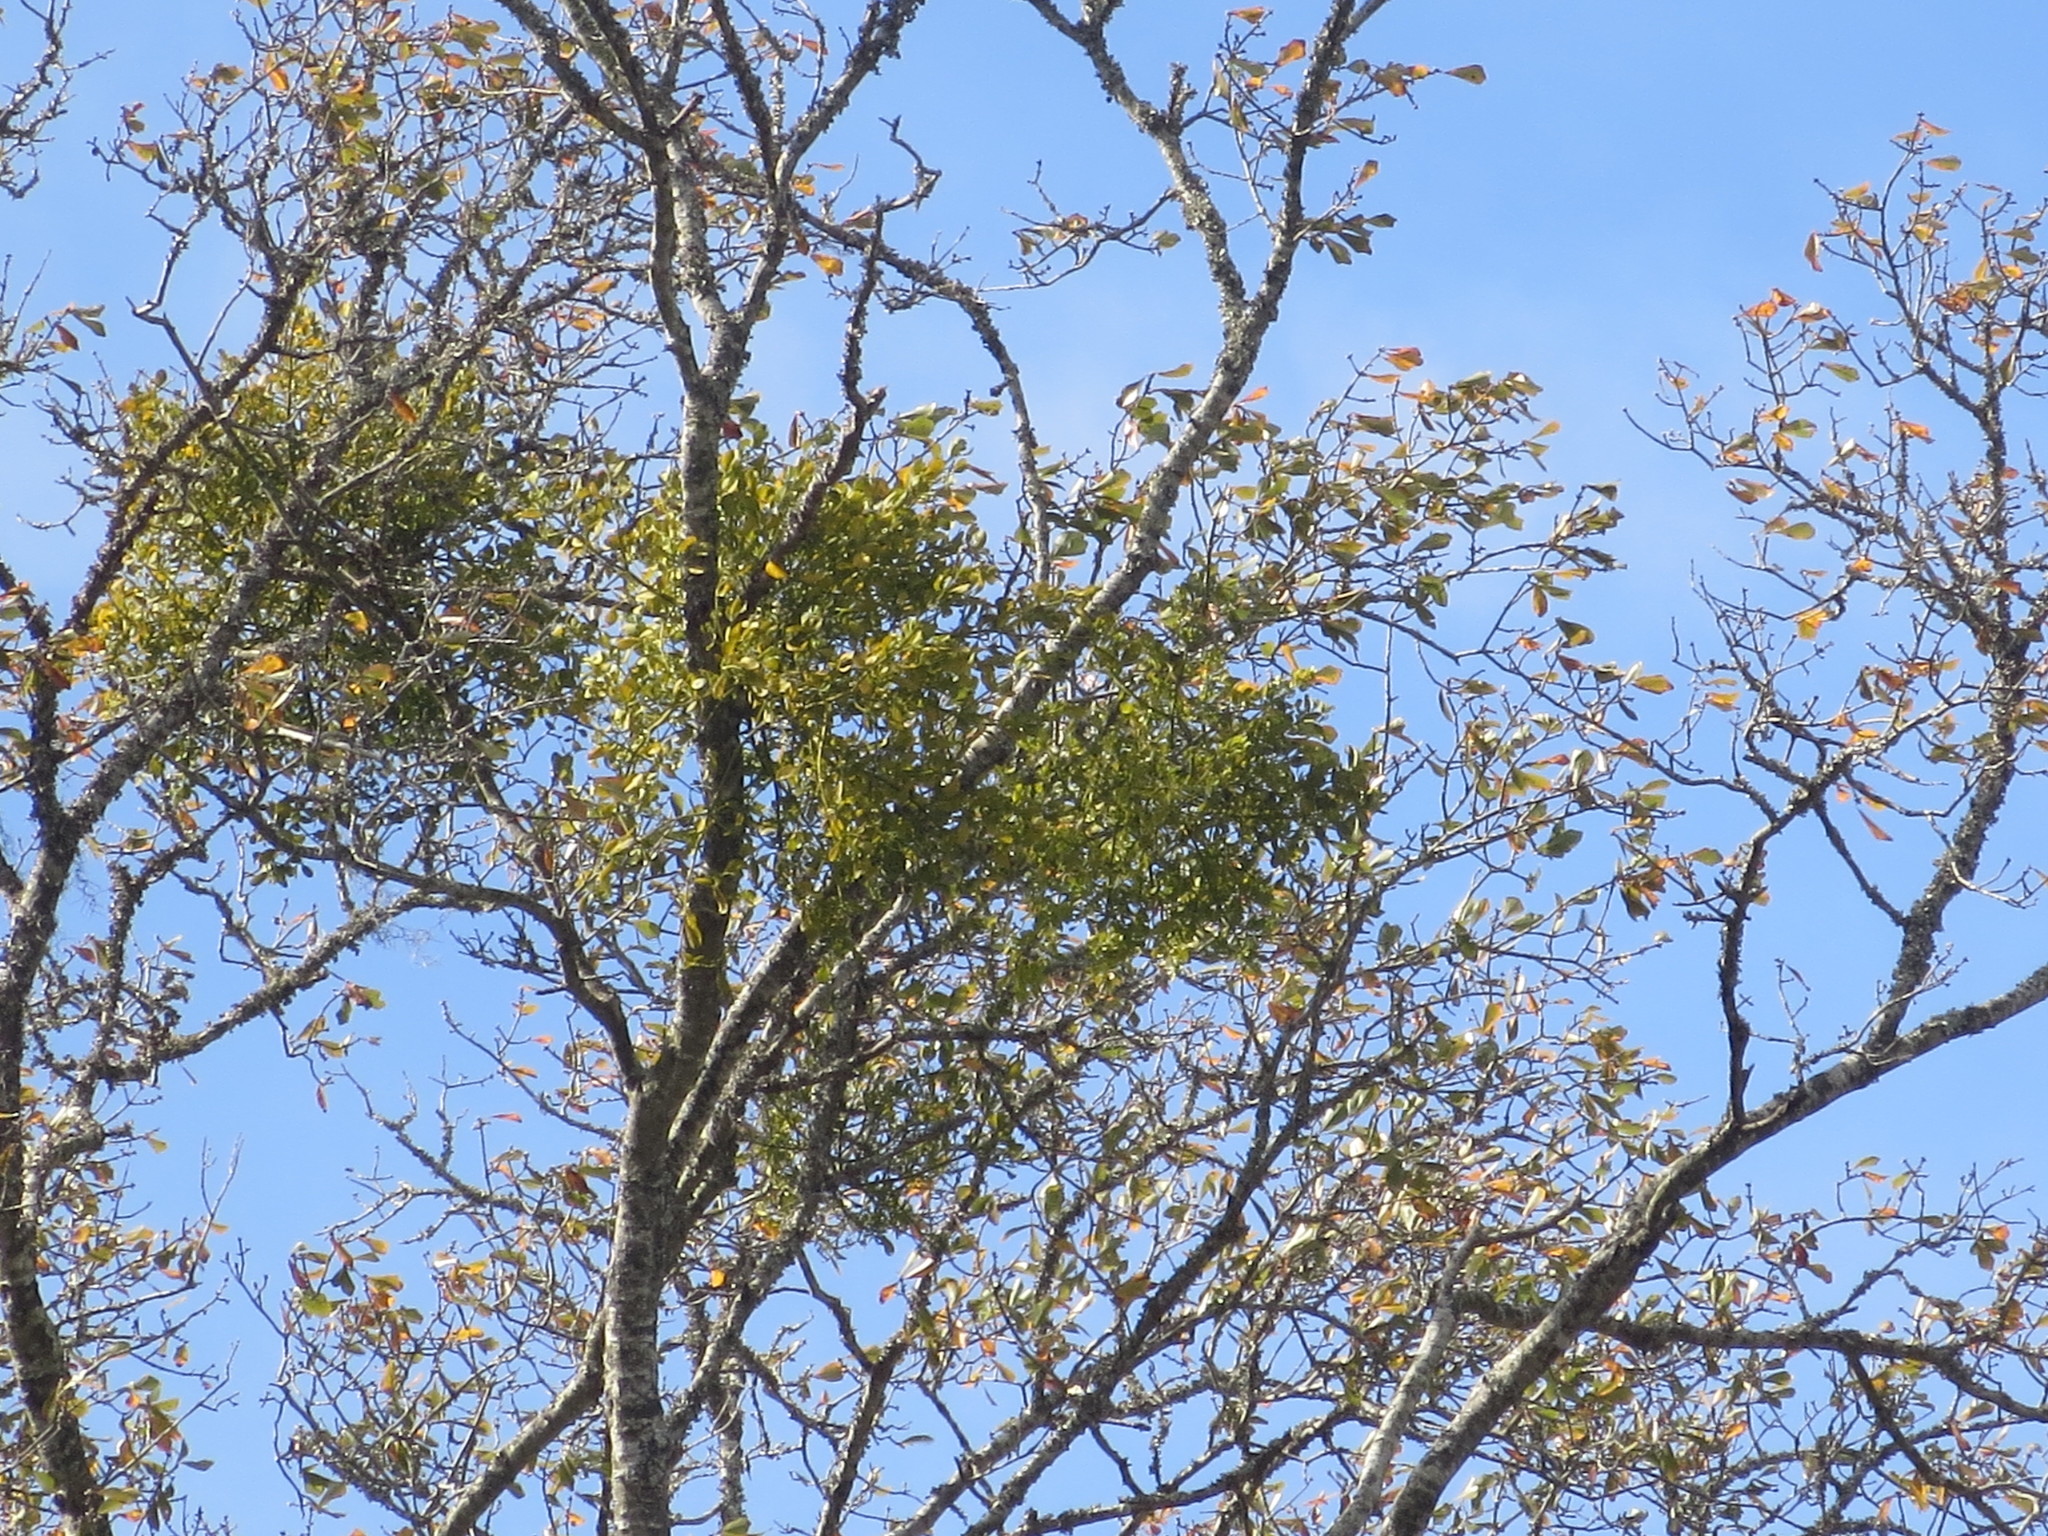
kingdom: Plantae
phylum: Tracheophyta
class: Magnoliopsida
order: Santalales
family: Viscaceae
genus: Phoradendron
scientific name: Phoradendron leucarpum
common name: Pacific mistletoe
